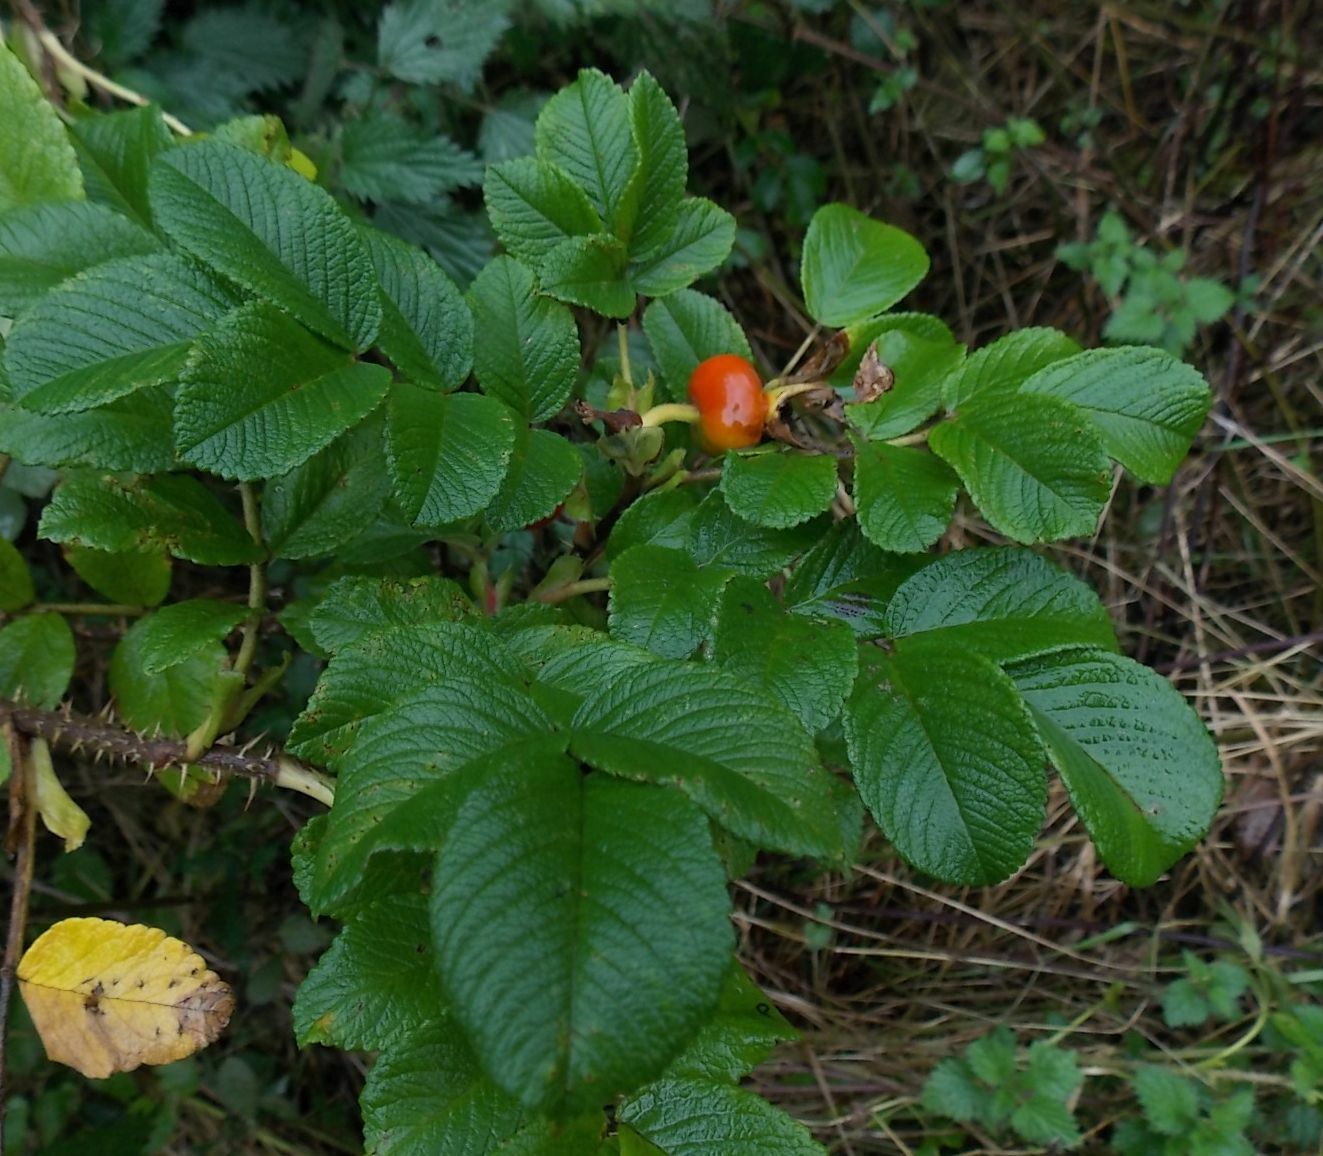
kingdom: Plantae
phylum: Tracheophyta
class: Magnoliopsida
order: Rosales
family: Rosaceae
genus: Rosa
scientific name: Rosa rugosa
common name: Japanese rose
